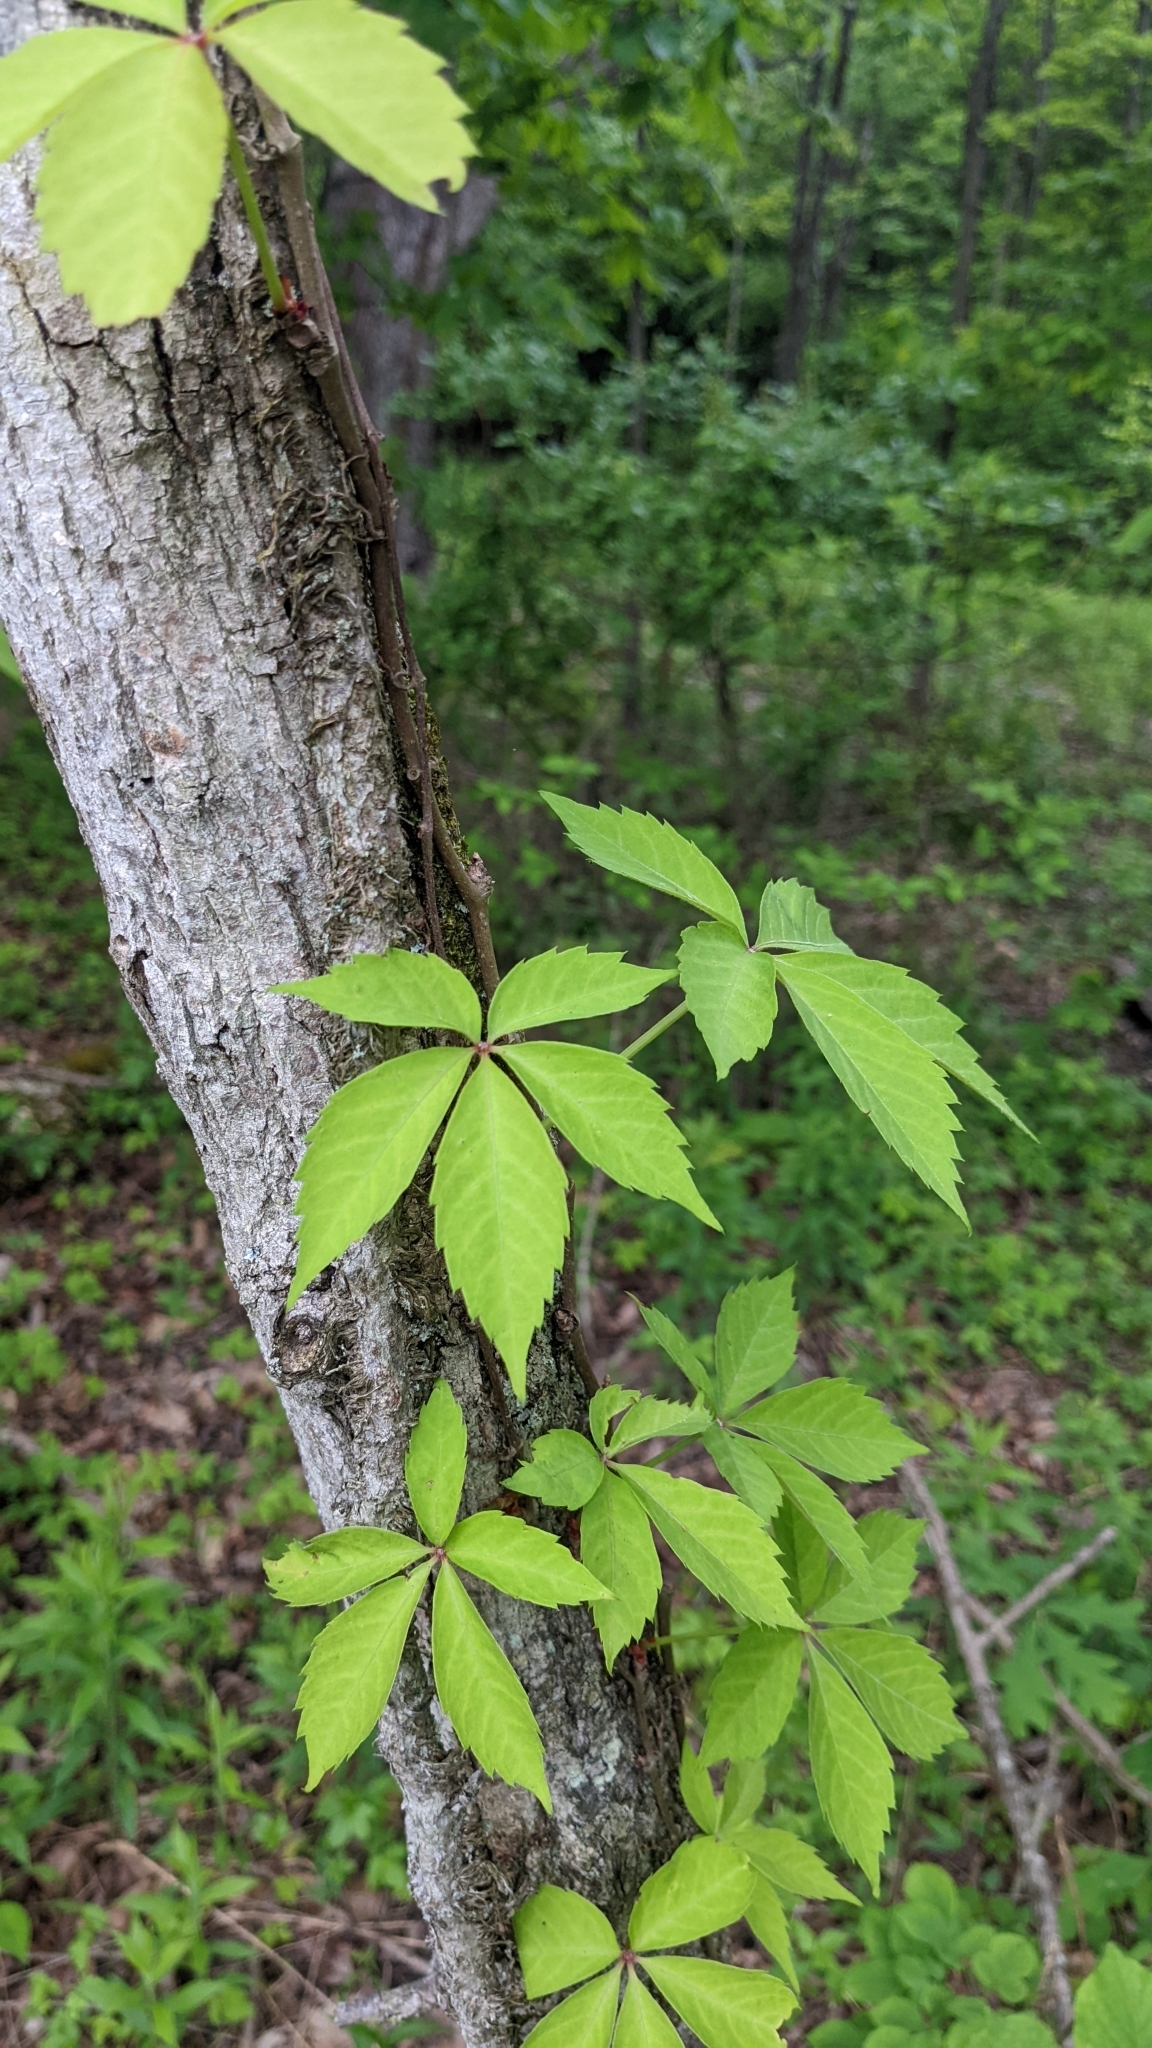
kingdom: Plantae
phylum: Tracheophyta
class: Magnoliopsida
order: Vitales
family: Vitaceae
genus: Parthenocissus
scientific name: Parthenocissus quinquefolia
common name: Virginia-creeper
